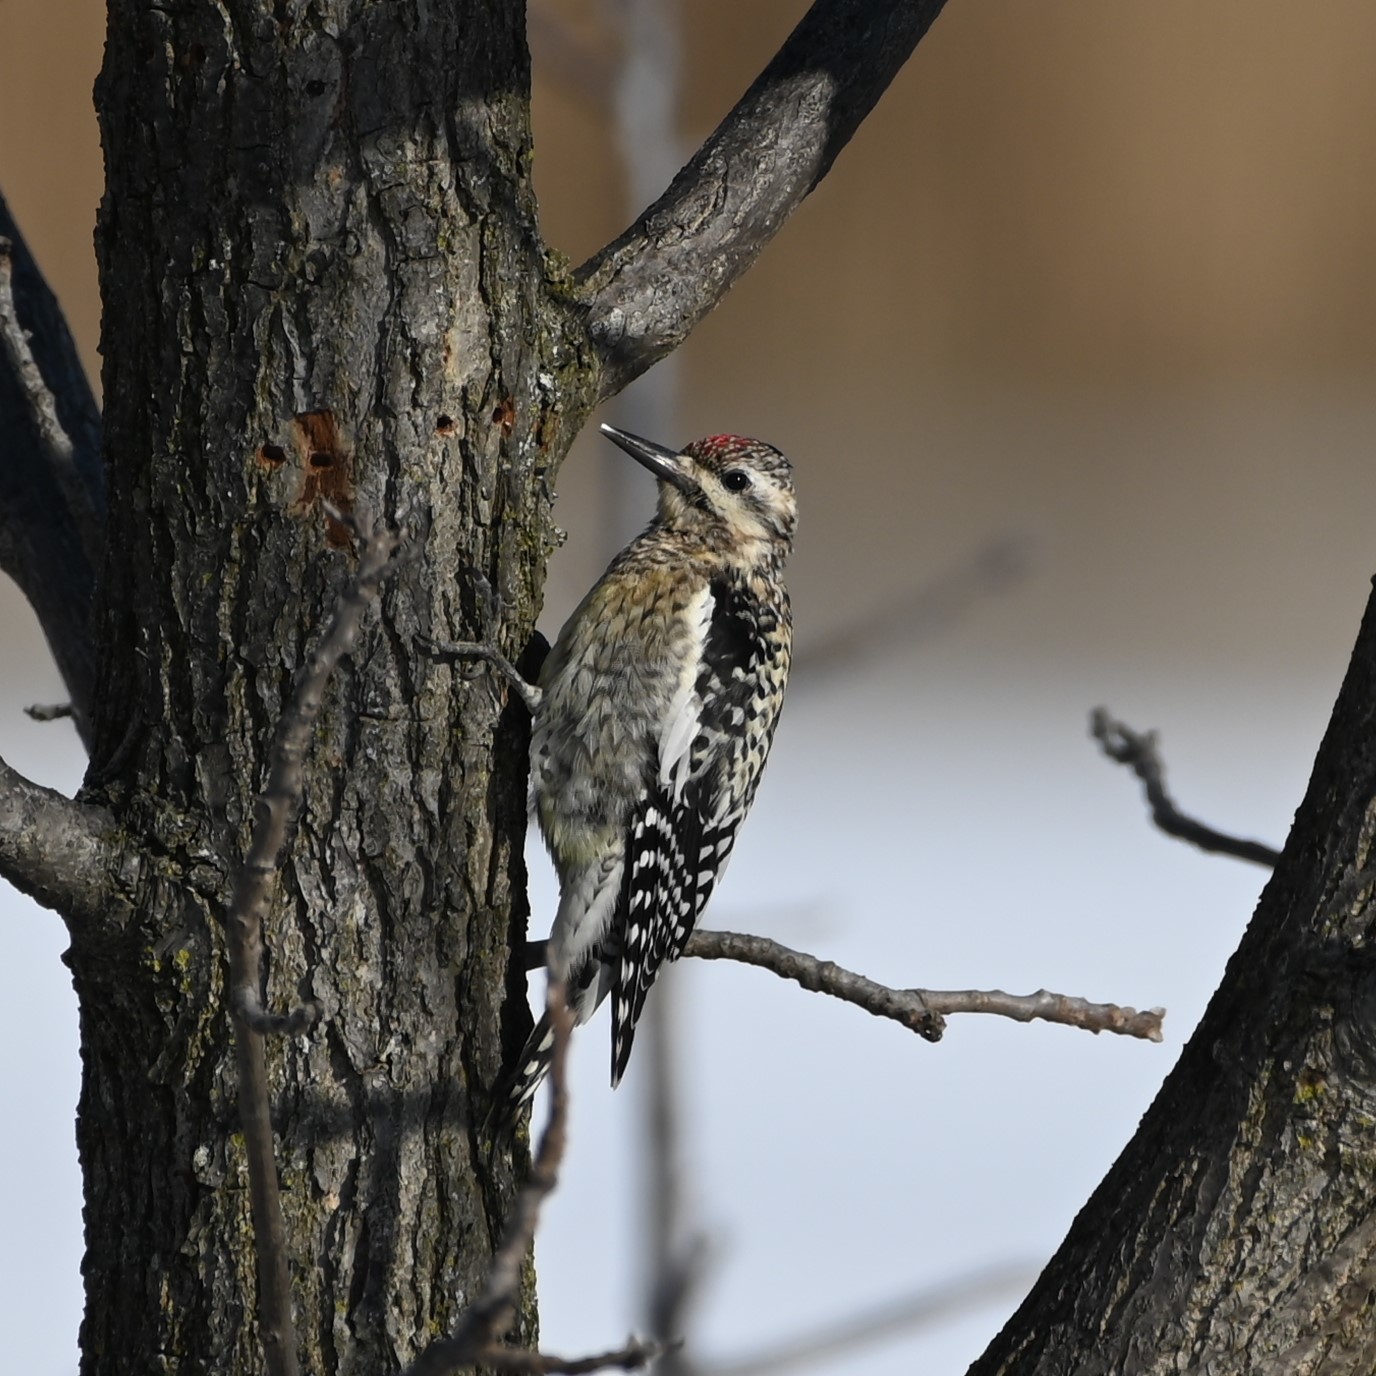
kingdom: Animalia
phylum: Chordata
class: Aves
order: Piciformes
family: Picidae
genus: Sphyrapicus
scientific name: Sphyrapicus varius
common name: Yellow-bellied sapsucker
